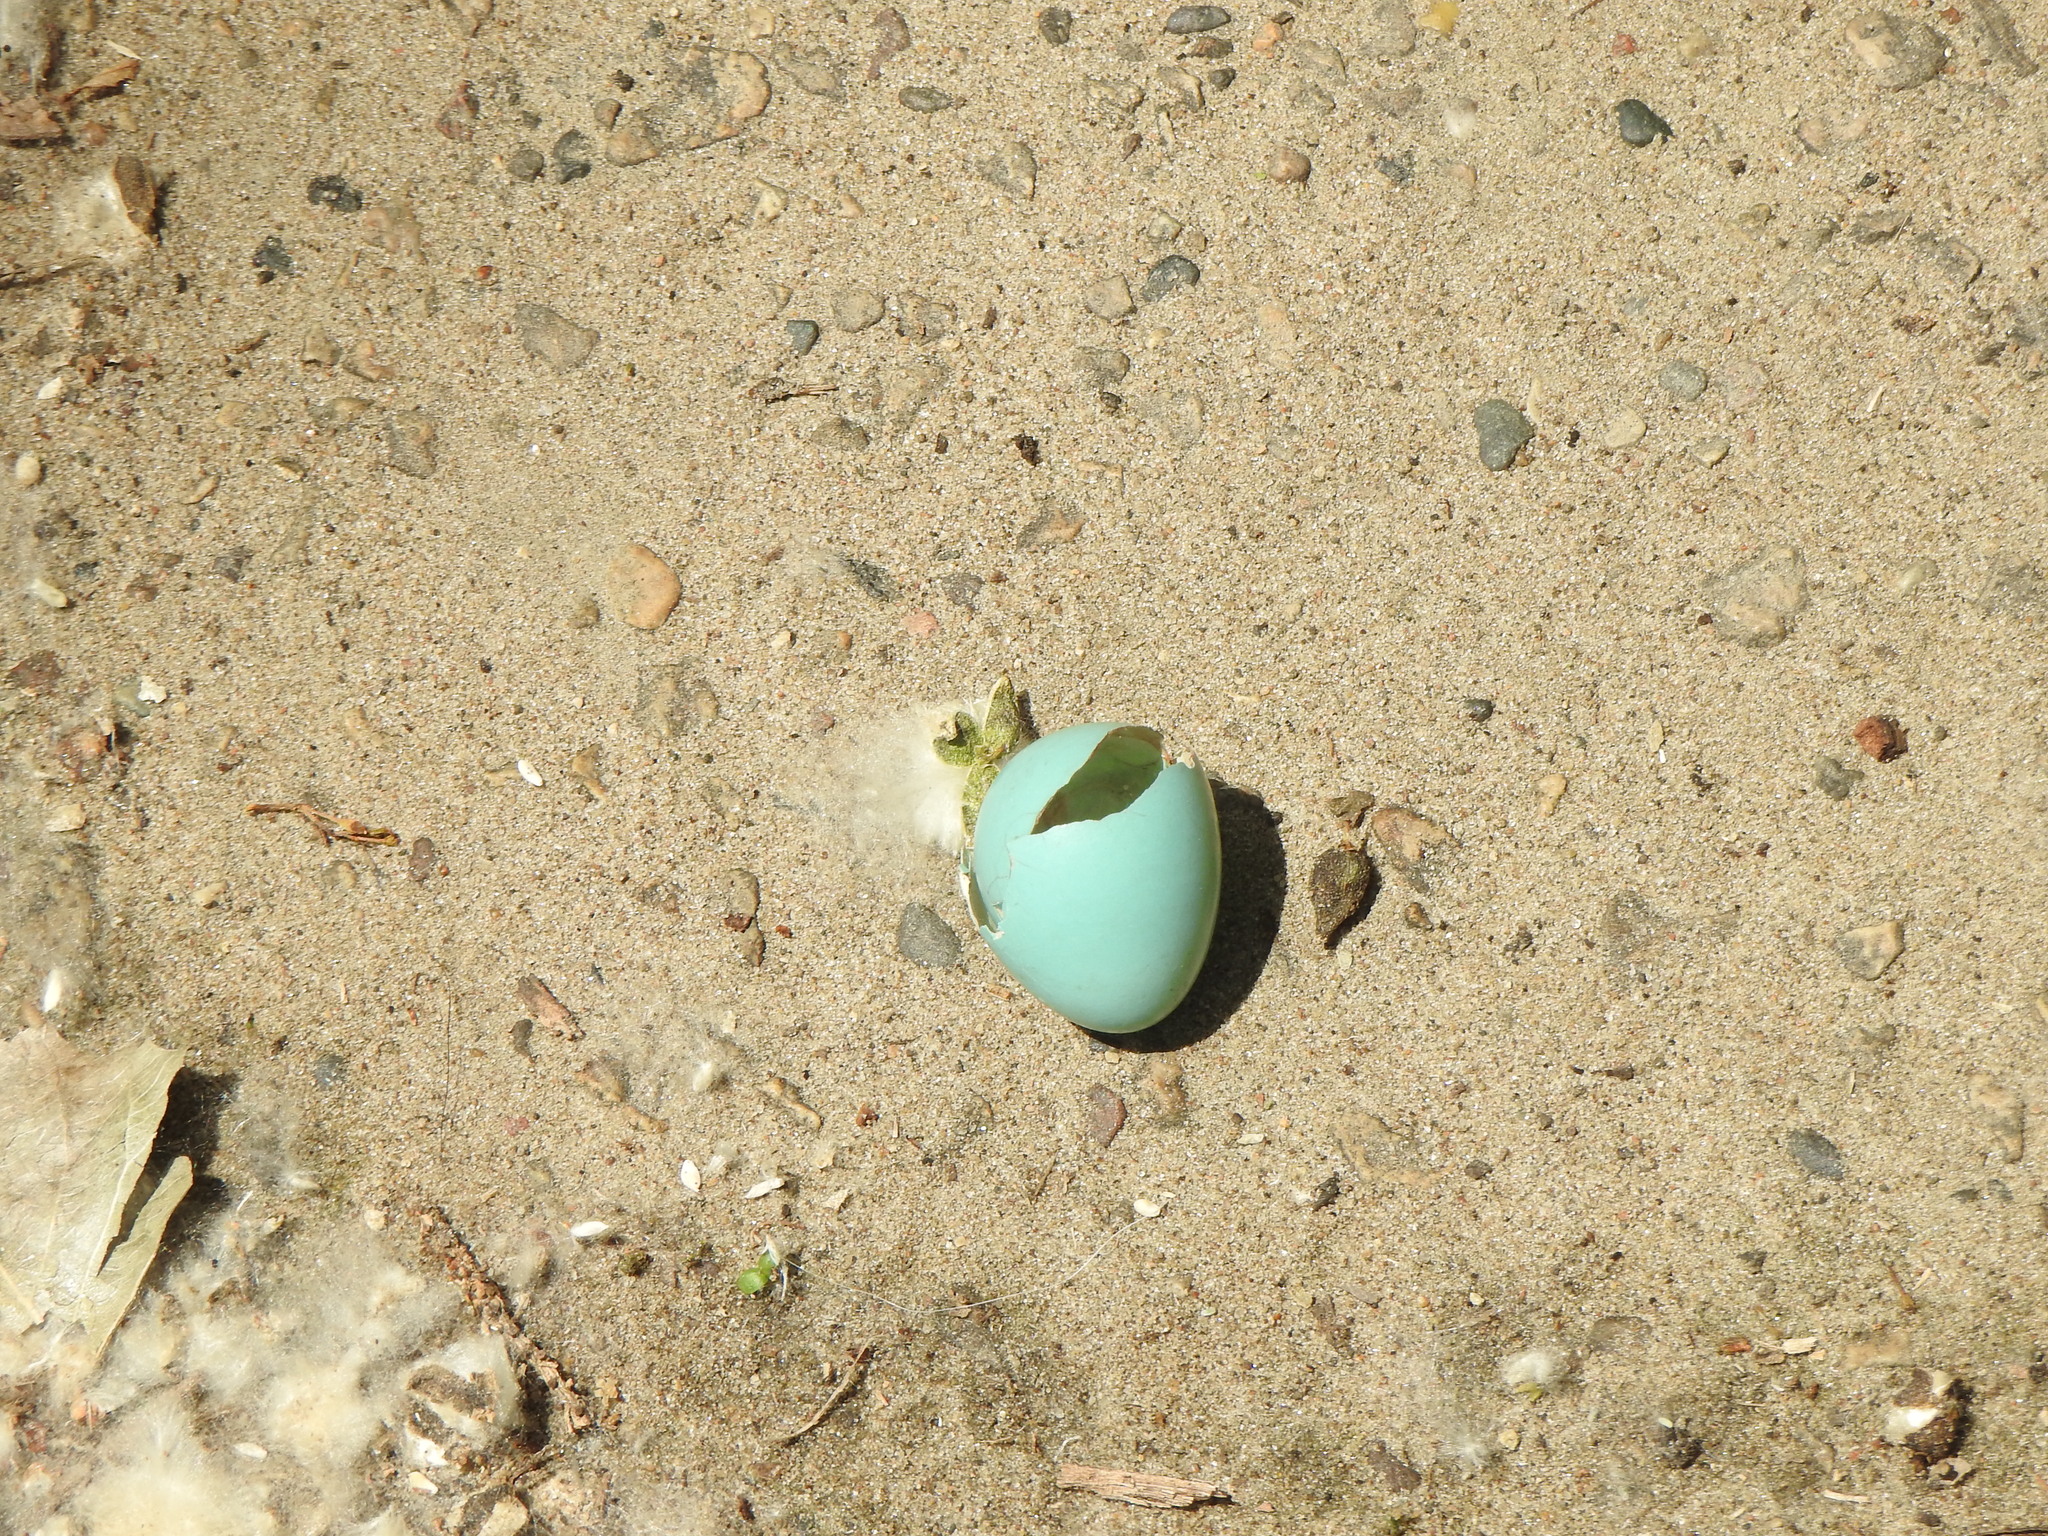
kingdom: Animalia
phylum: Chordata
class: Aves
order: Passeriformes
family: Turdidae
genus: Turdus
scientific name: Turdus migratorius
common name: American robin
